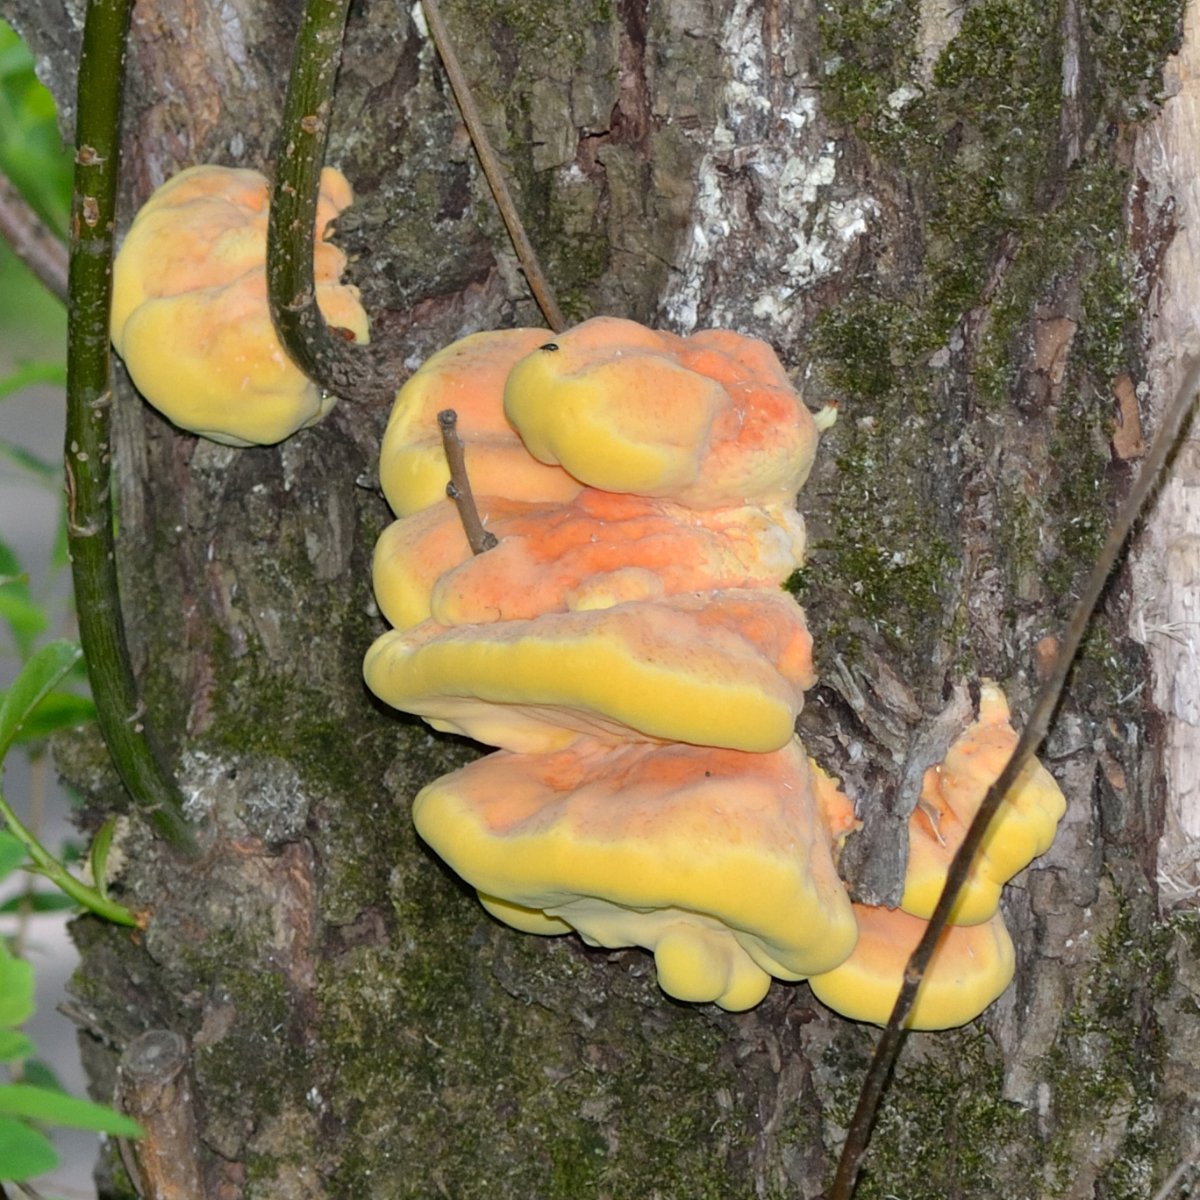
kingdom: Fungi
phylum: Basidiomycota
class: Agaricomycetes
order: Polyporales
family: Laetiporaceae
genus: Laetiporus
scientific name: Laetiporus sulphureus
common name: Chicken of the woods
